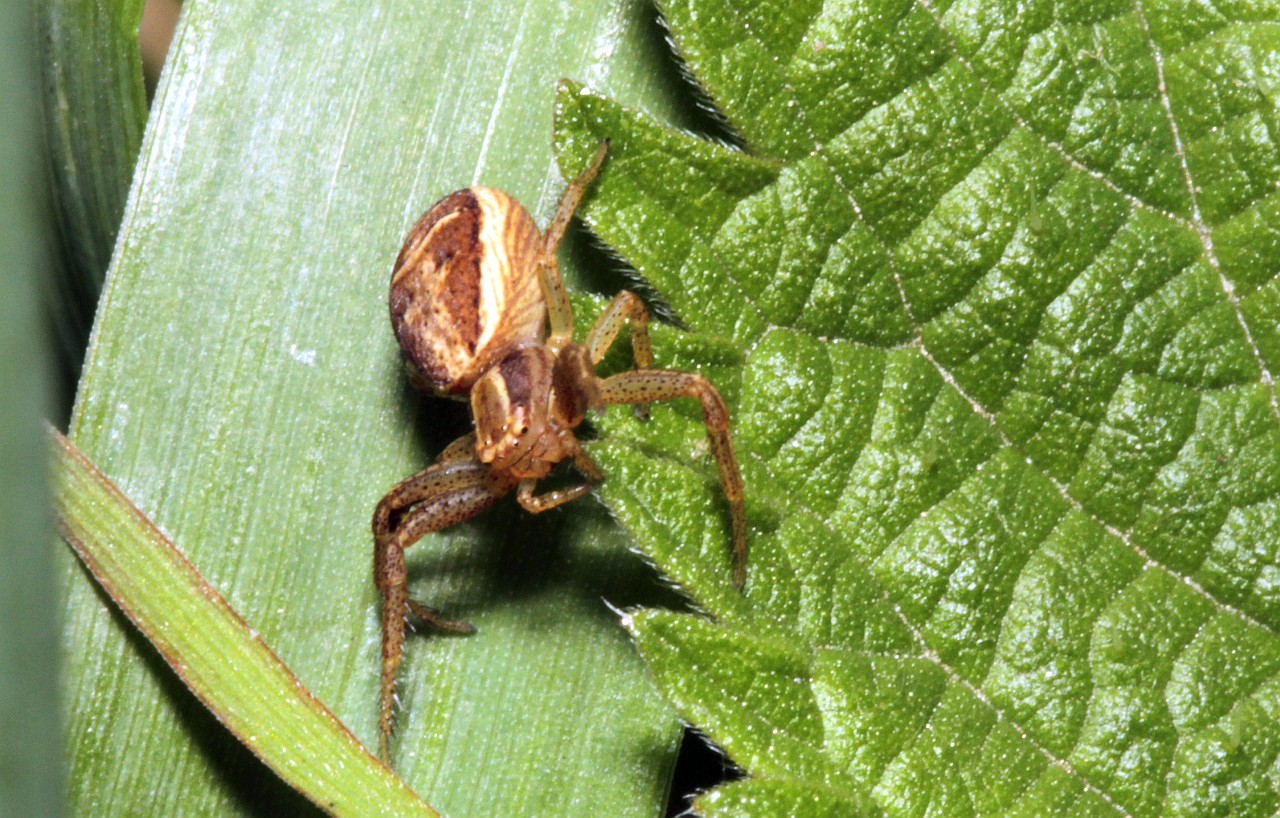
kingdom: Animalia
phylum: Arthropoda
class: Arachnida
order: Araneae
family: Thomisidae
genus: Xysticus
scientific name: Xysticus ulmi
